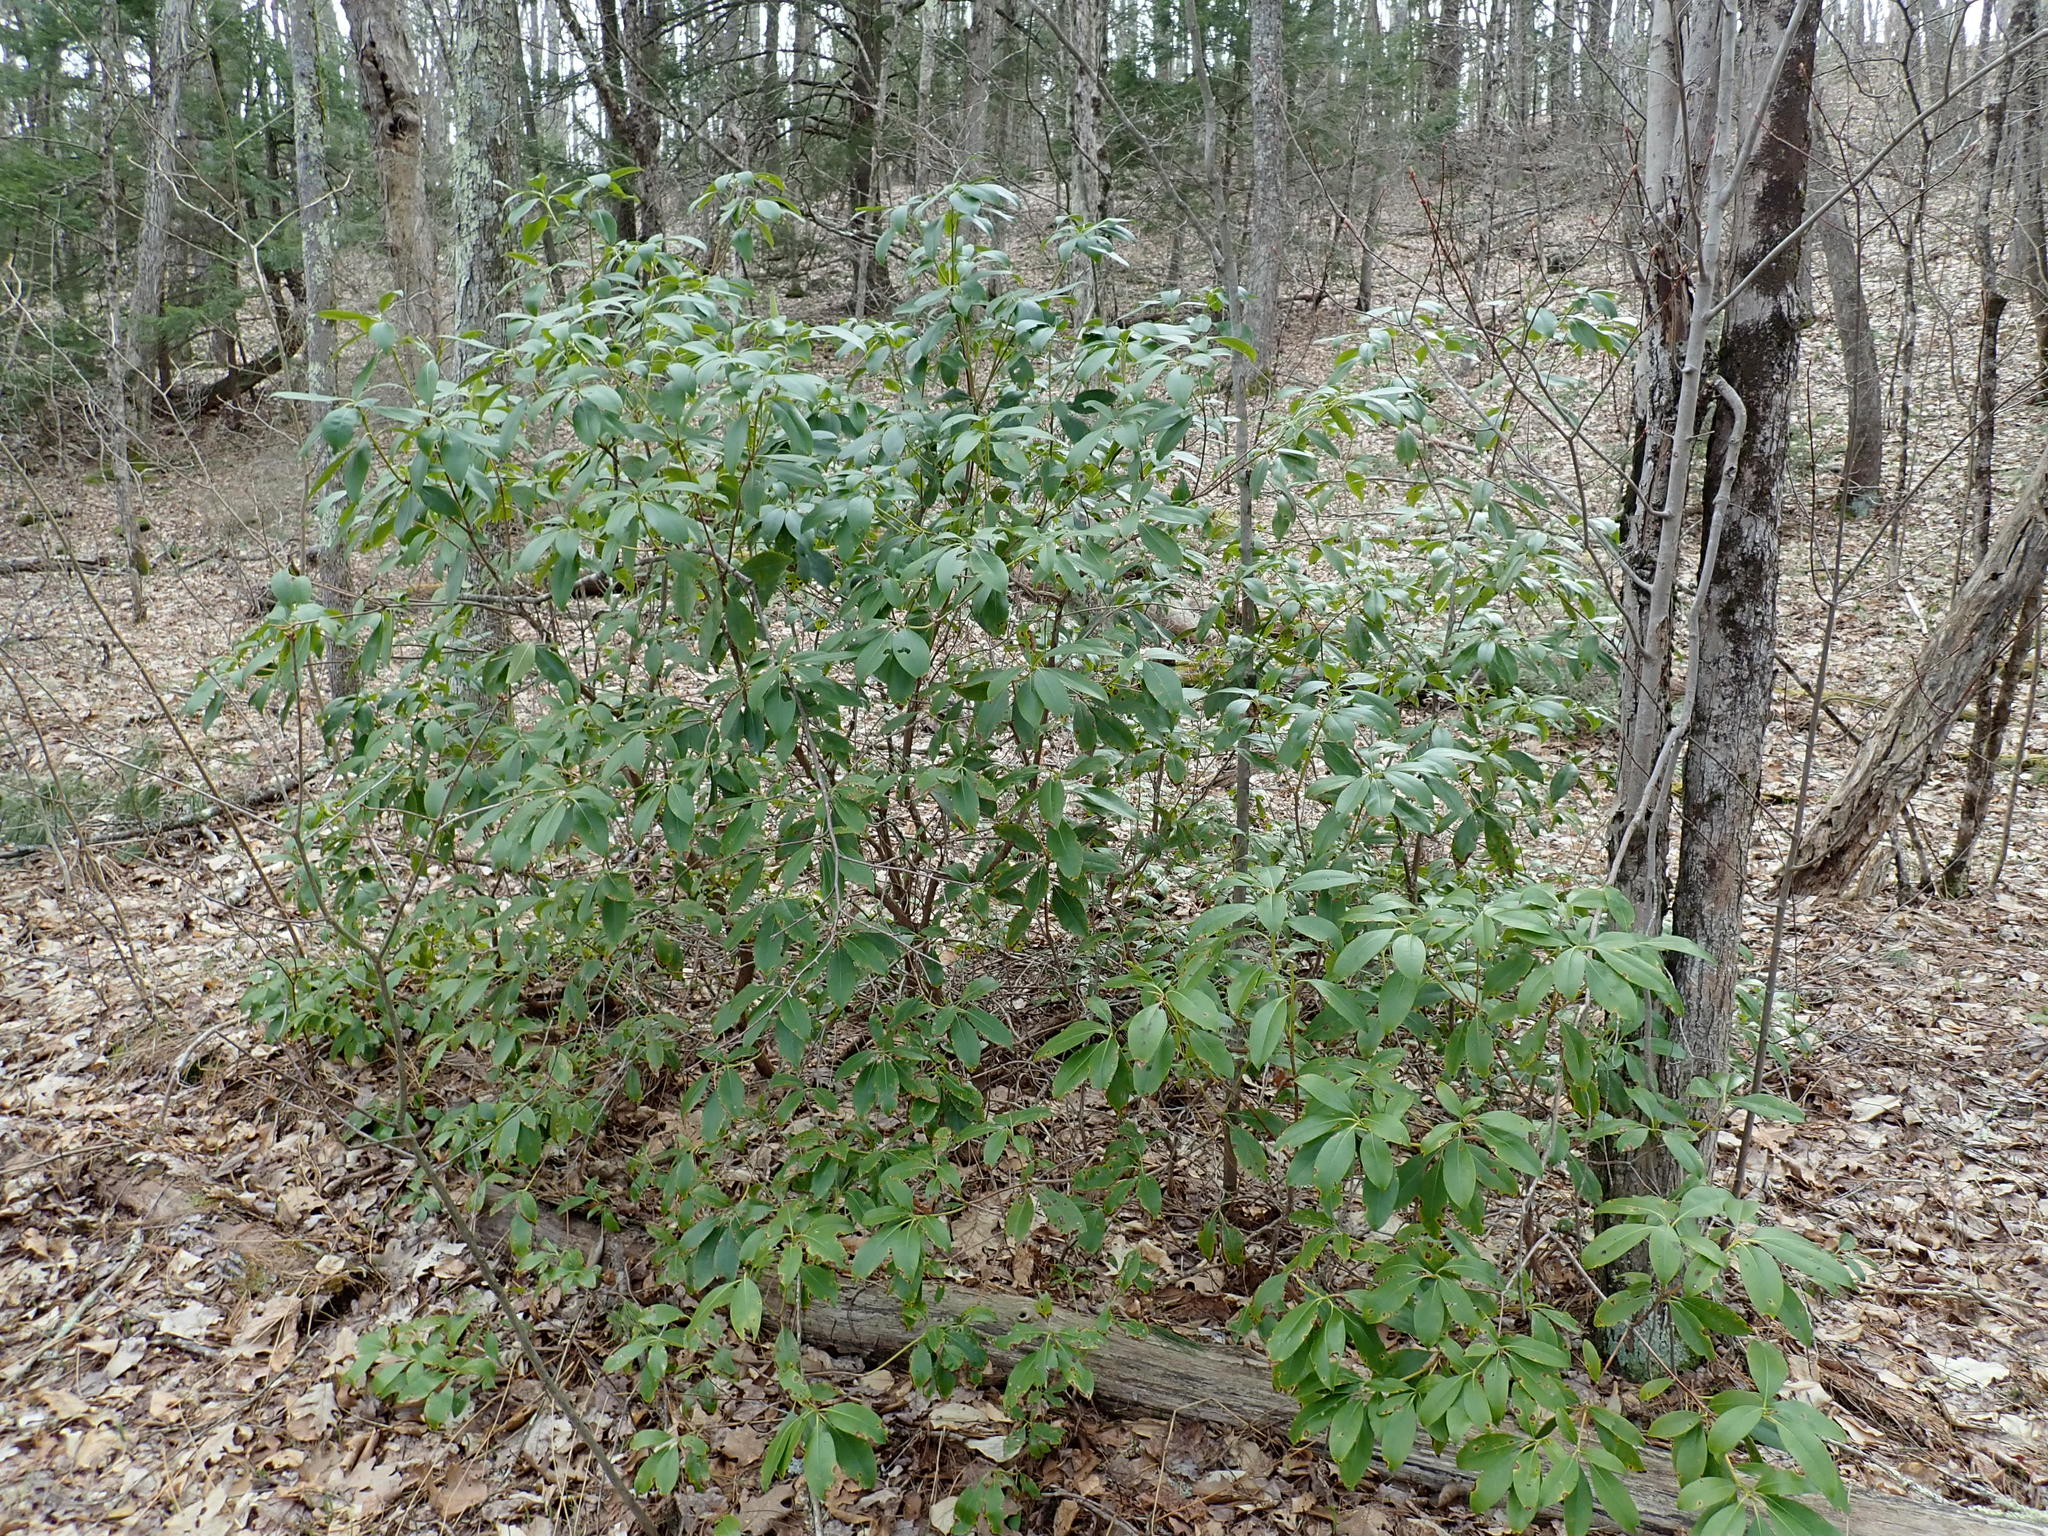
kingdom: Plantae
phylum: Tracheophyta
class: Magnoliopsida
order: Ericales
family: Ericaceae
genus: Kalmia
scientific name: Kalmia latifolia
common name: Mountain-laurel
